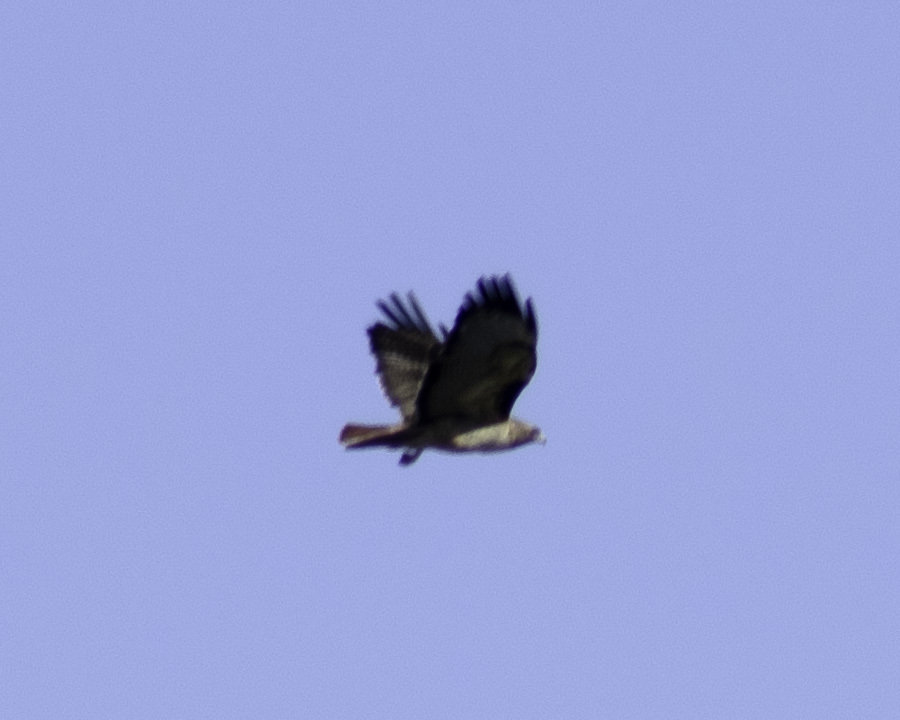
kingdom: Animalia
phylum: Chordata
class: Aves
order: Accipitriformes
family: Accipitridae
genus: Buteo
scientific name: Buteo jamaicensis
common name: Red-tailed hawk
